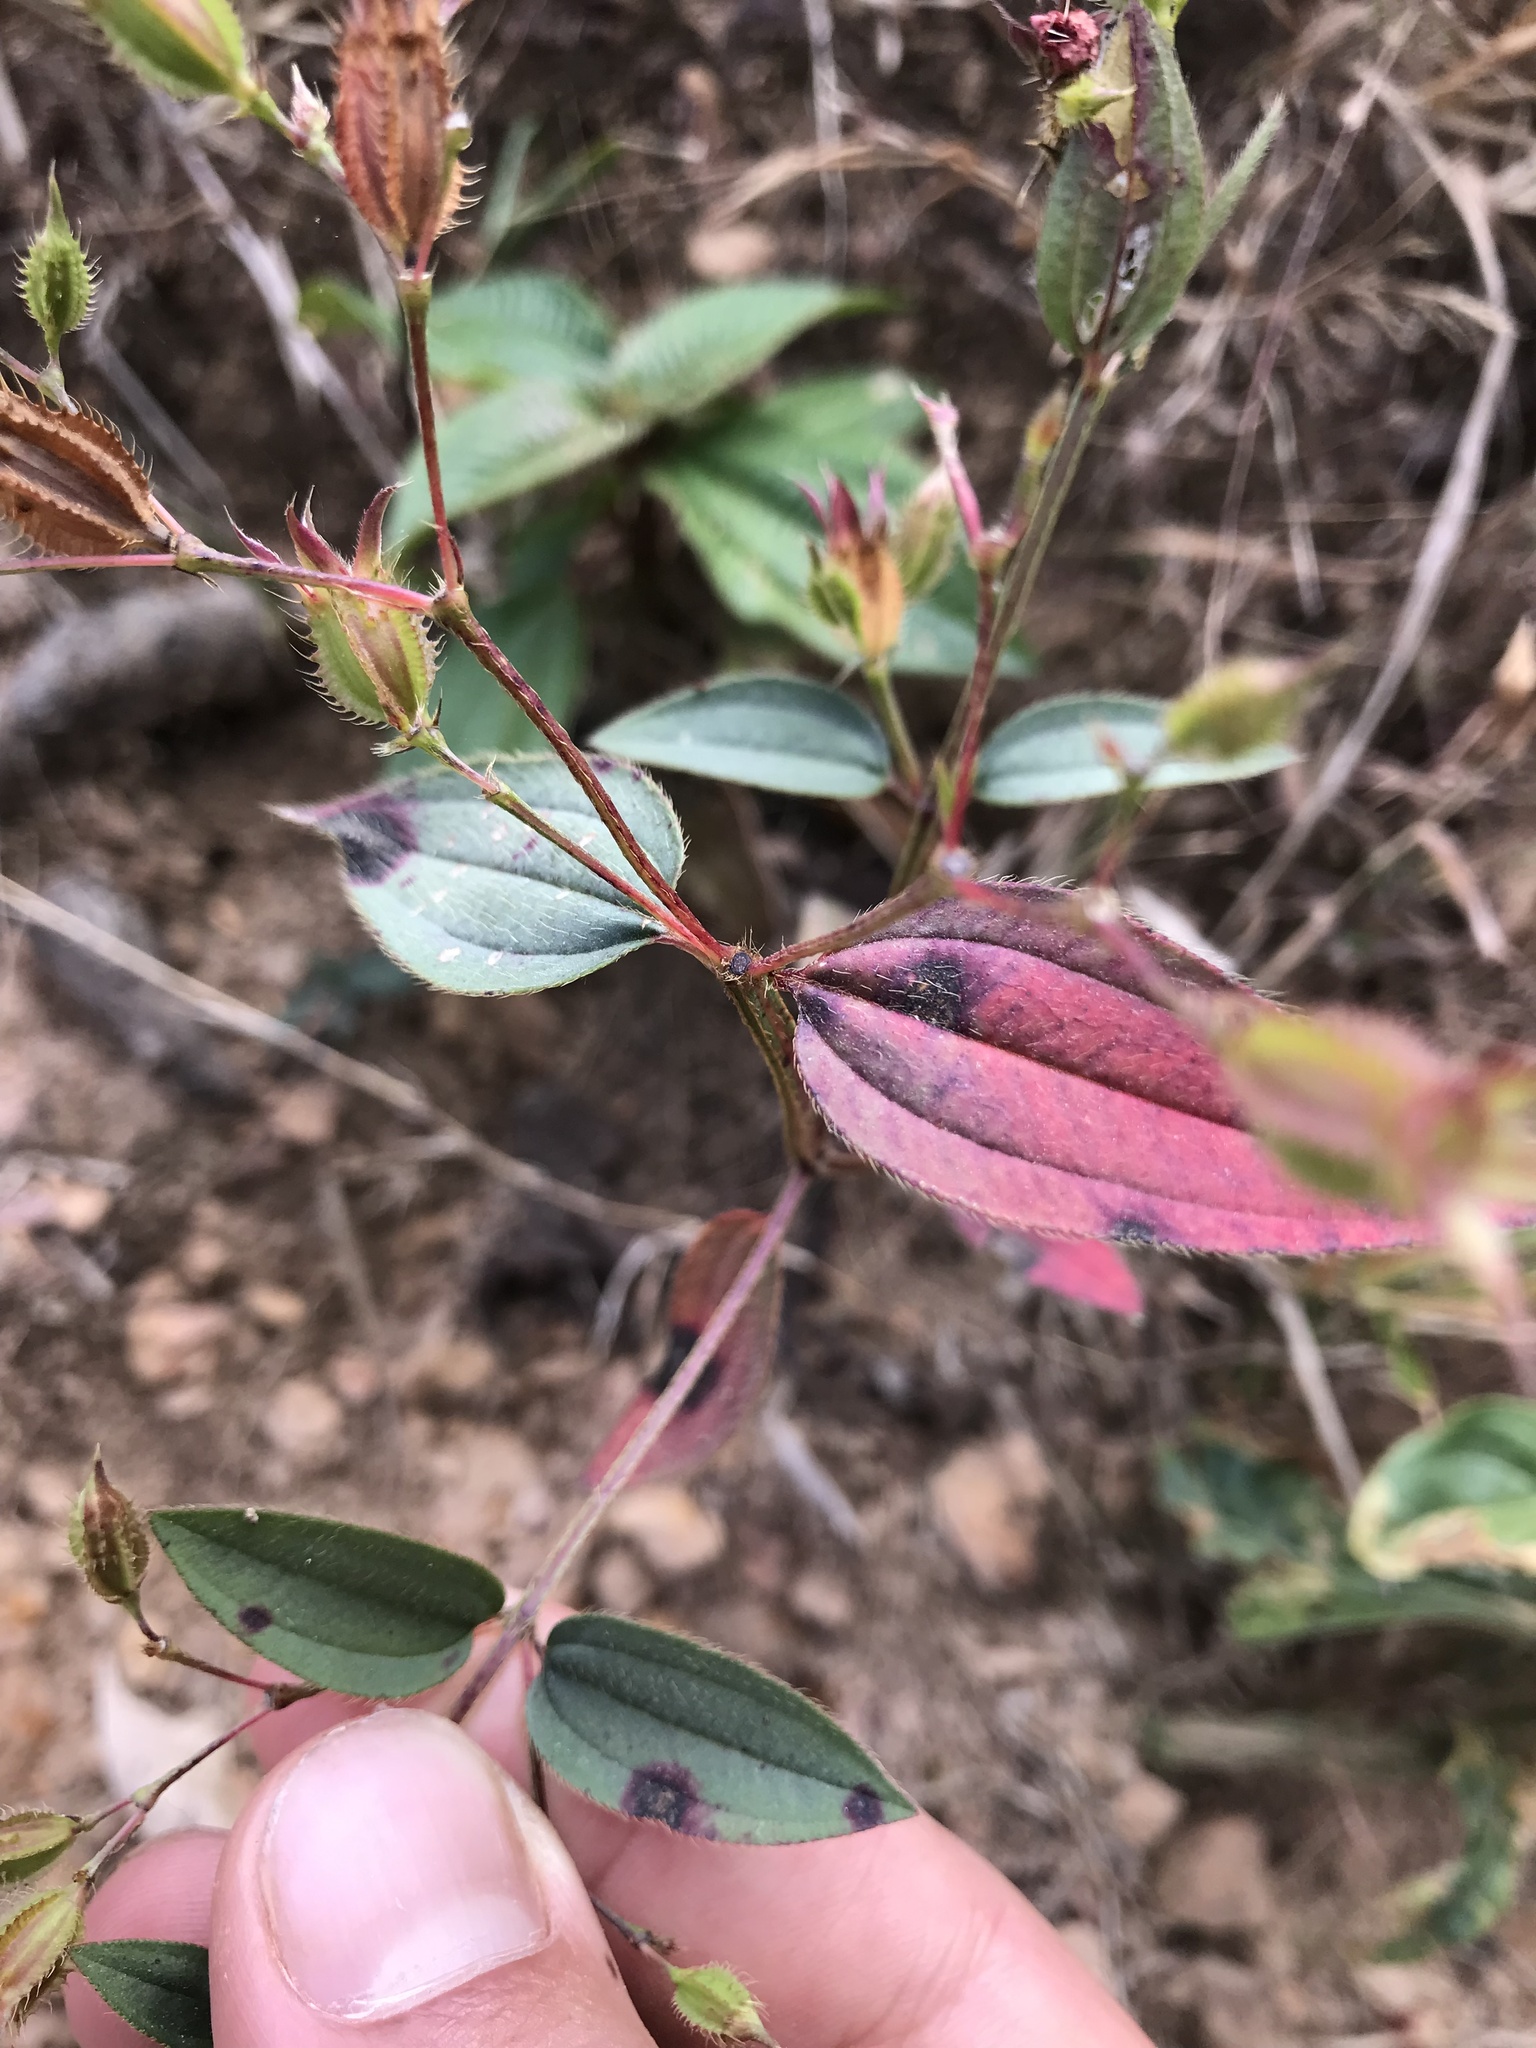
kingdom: Plantae
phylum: Tracheophyta
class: Magnoliopsida
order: Myrtales
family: Melastomataceae
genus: Pterogastra
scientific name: Pterogastra divaricata
